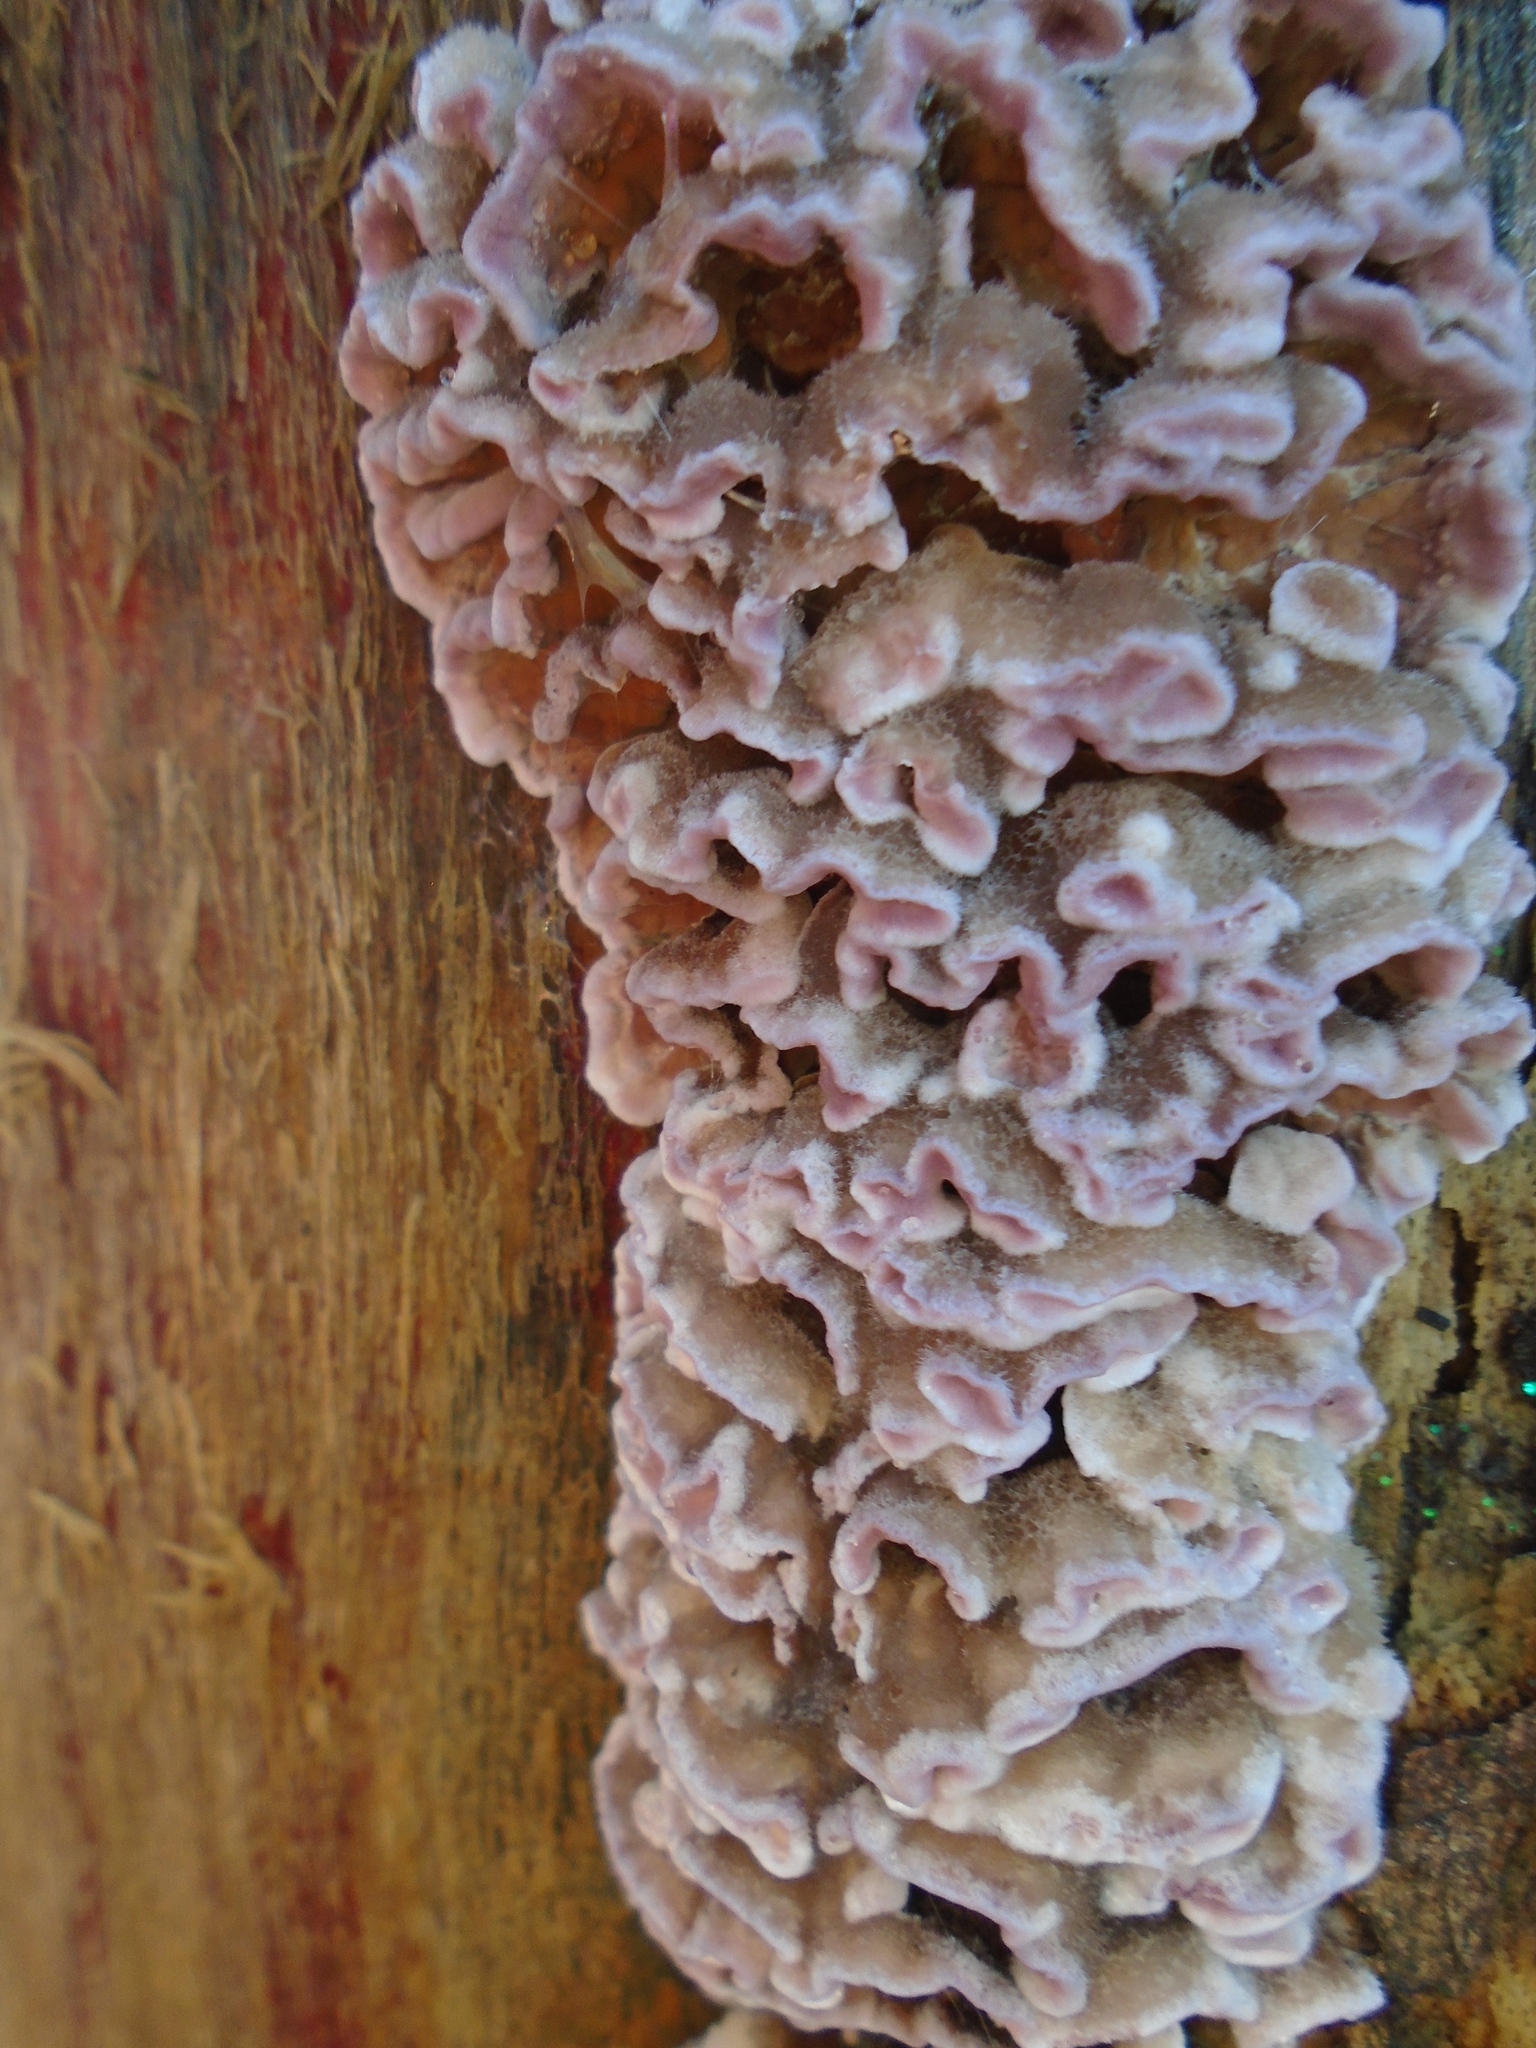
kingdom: Fungi
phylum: Basidiomycota
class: Agaricomycetes
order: Agaricales
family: Cyphellaceae
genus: Chondrostereum
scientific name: Chondrostereum purpureum
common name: Silver leaf disease
